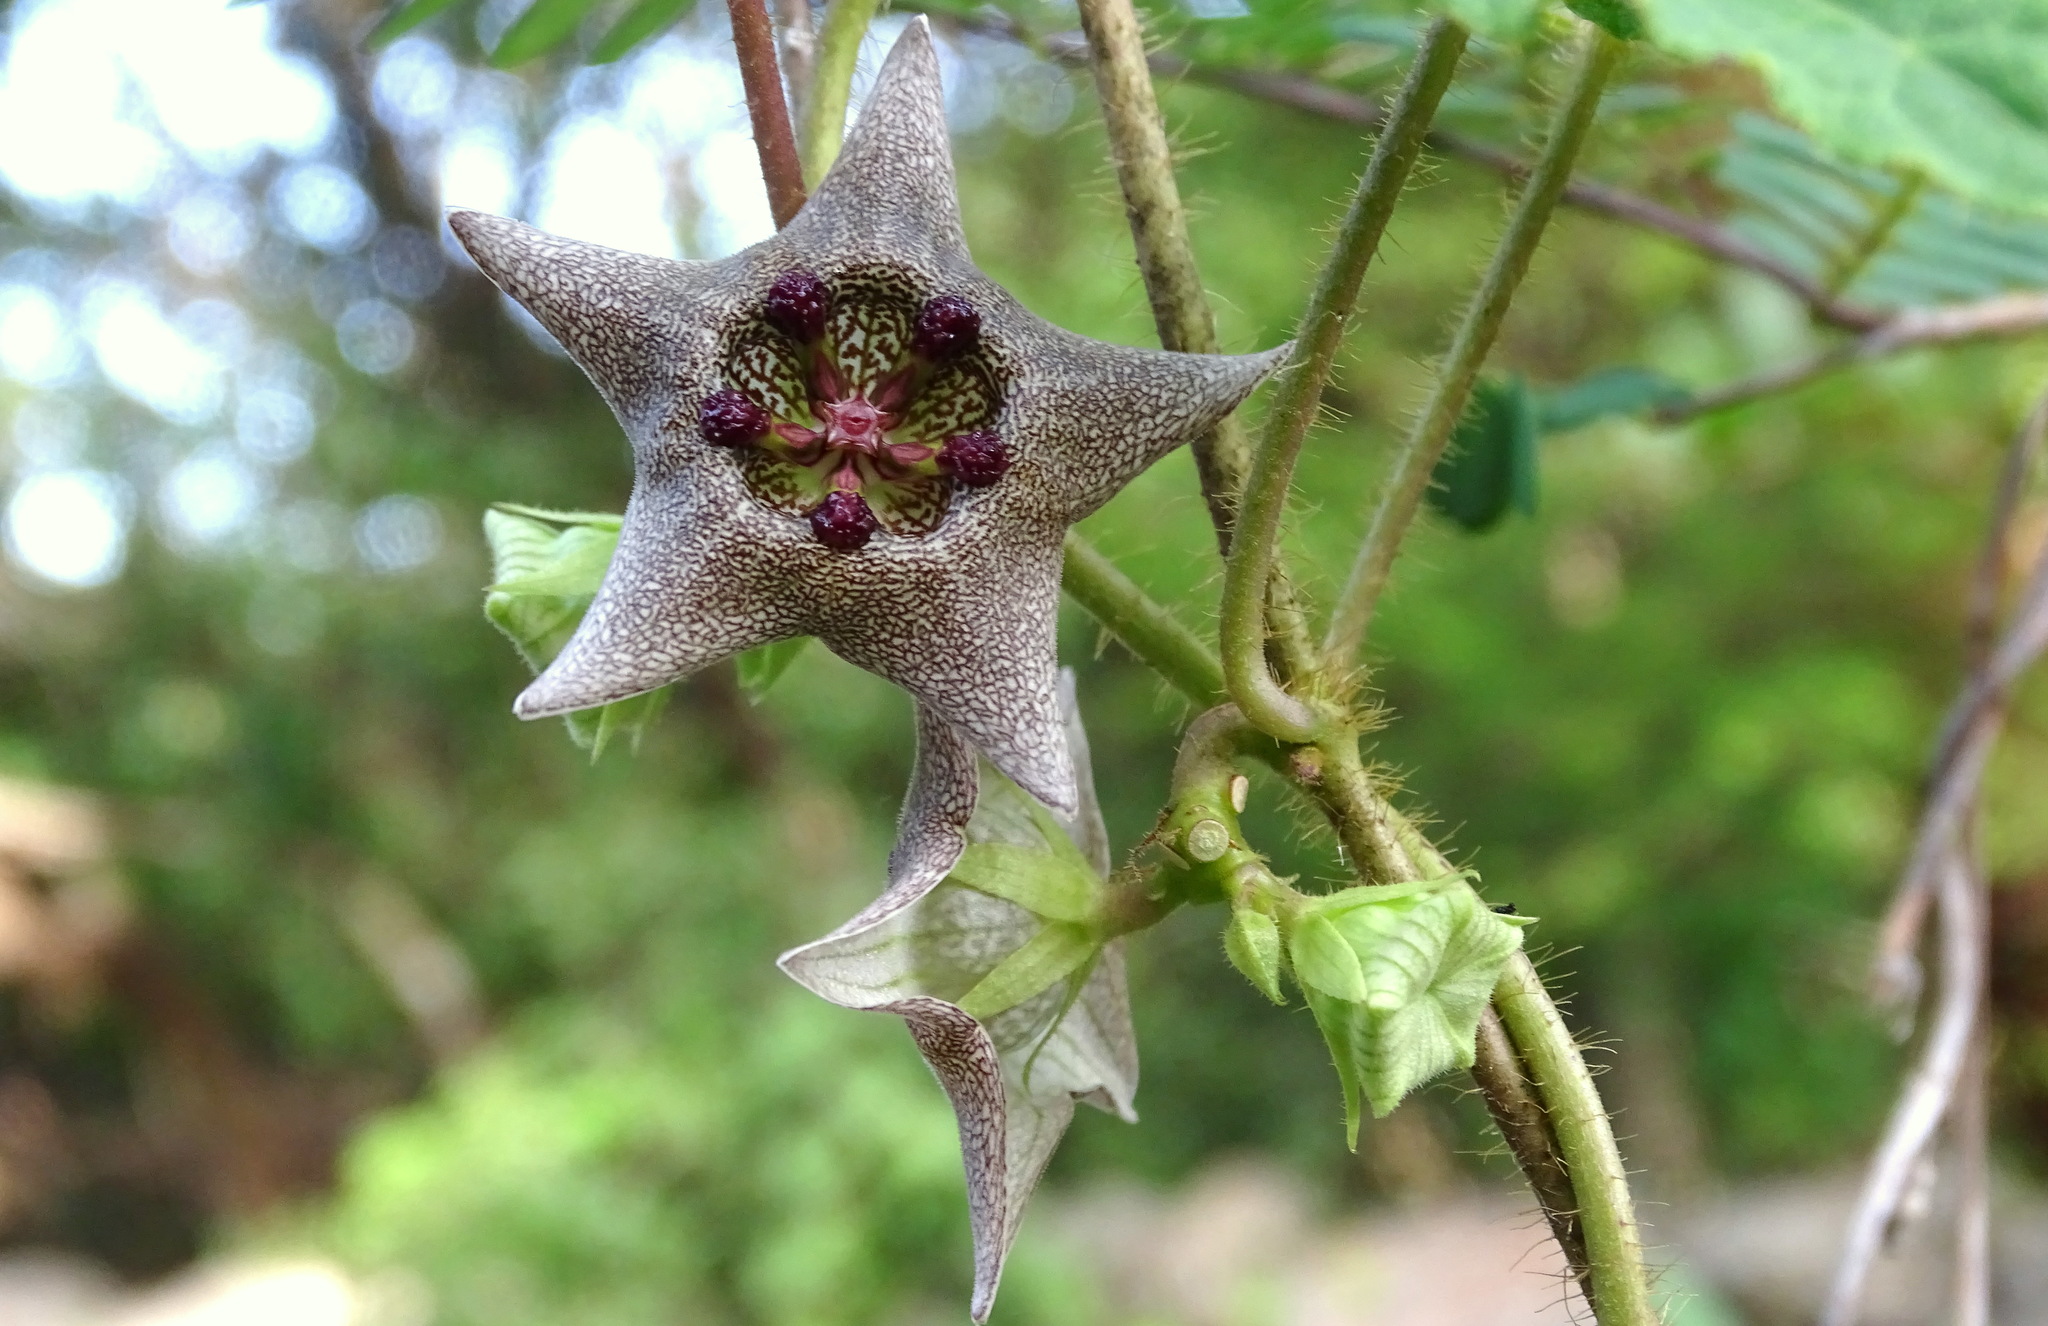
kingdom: Plantae
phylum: Tracheophyta
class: Magnoliopsida
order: Gentianales
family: Apocynaceae
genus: Dictyanthus
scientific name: Dictyanthus yucatanensis
